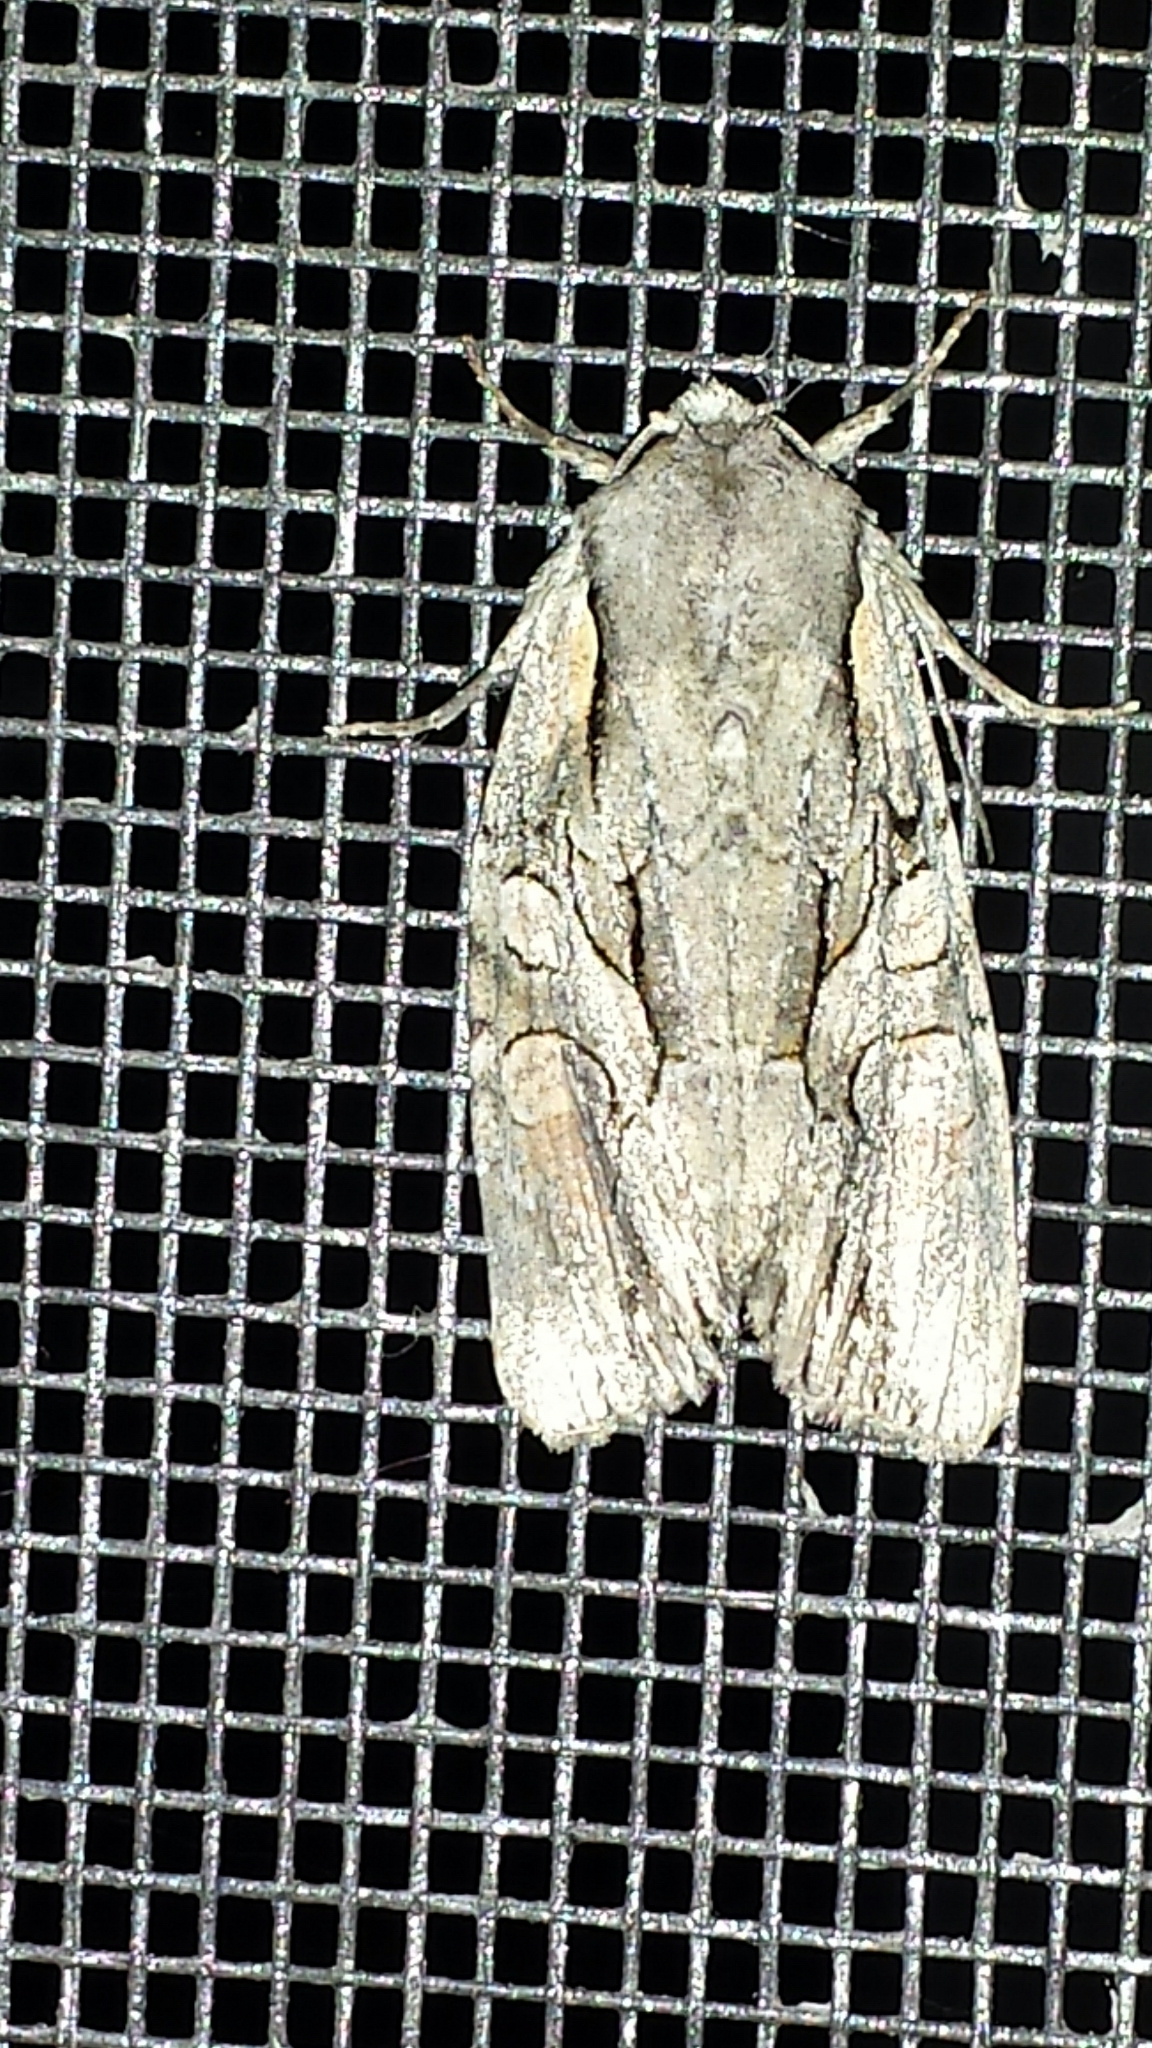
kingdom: Animalia
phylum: Arthropoda
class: Insecta
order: Lepidoptera
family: Noctuidae
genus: Lacanobia
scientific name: Lacanobia subjuncta
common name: Speckled cutworm moth
